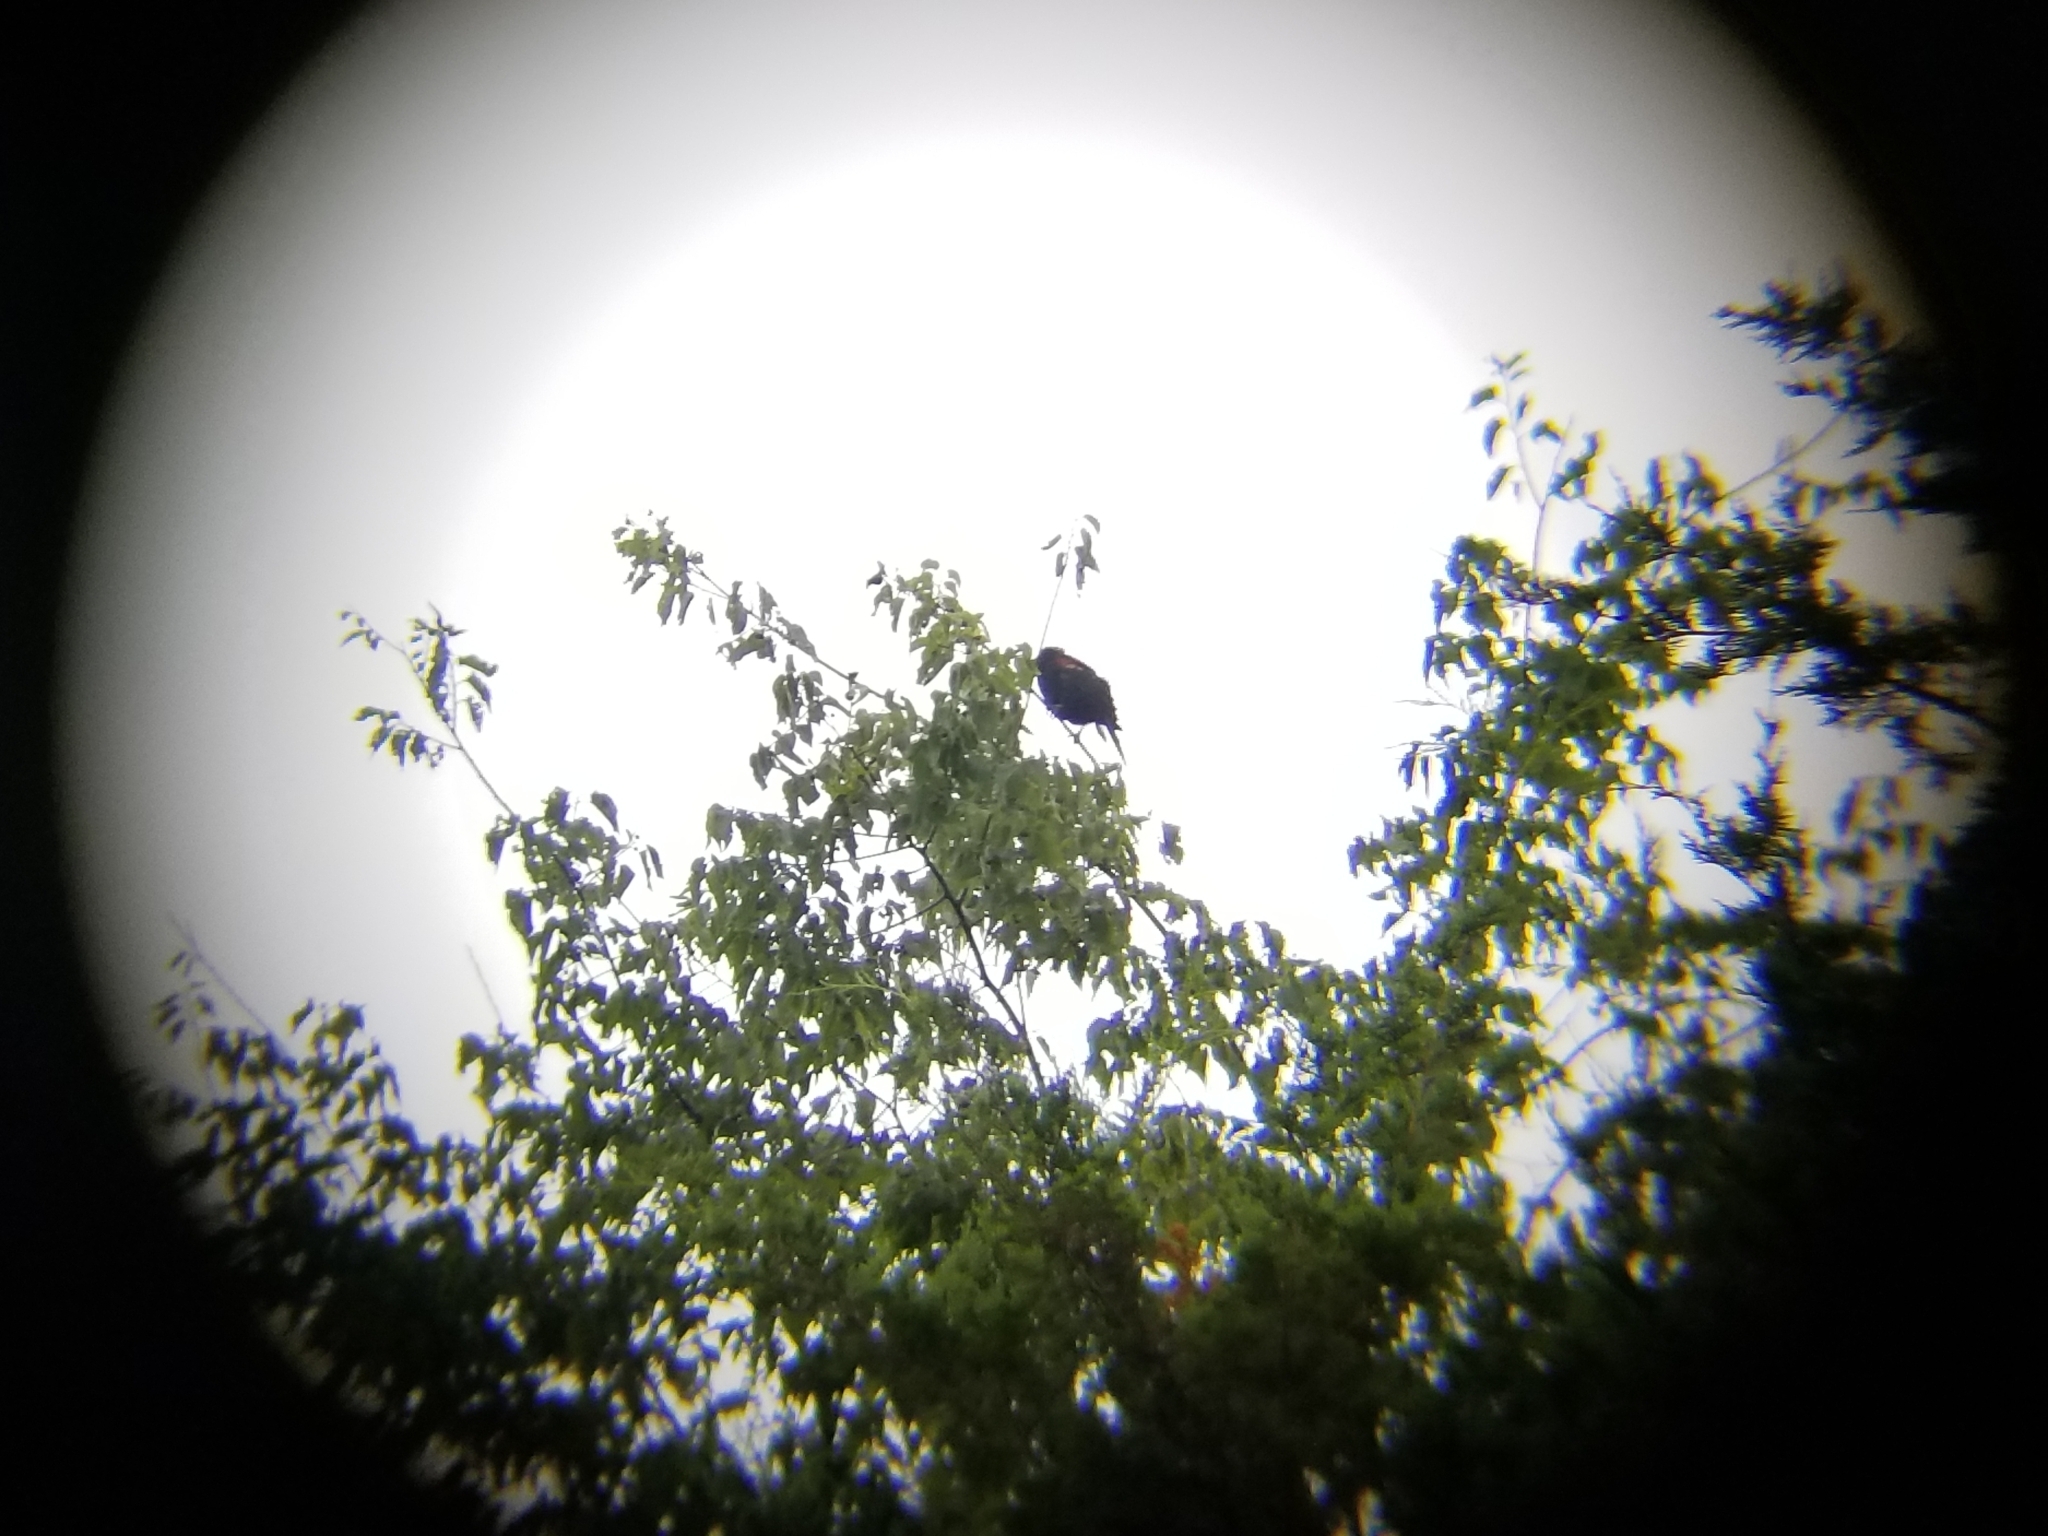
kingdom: Animalia
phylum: Chordata
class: Aves
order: Passeriformes
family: Icteridae
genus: Agelaius
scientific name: Agelaius phoeniceus
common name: Red-winged blackbird
